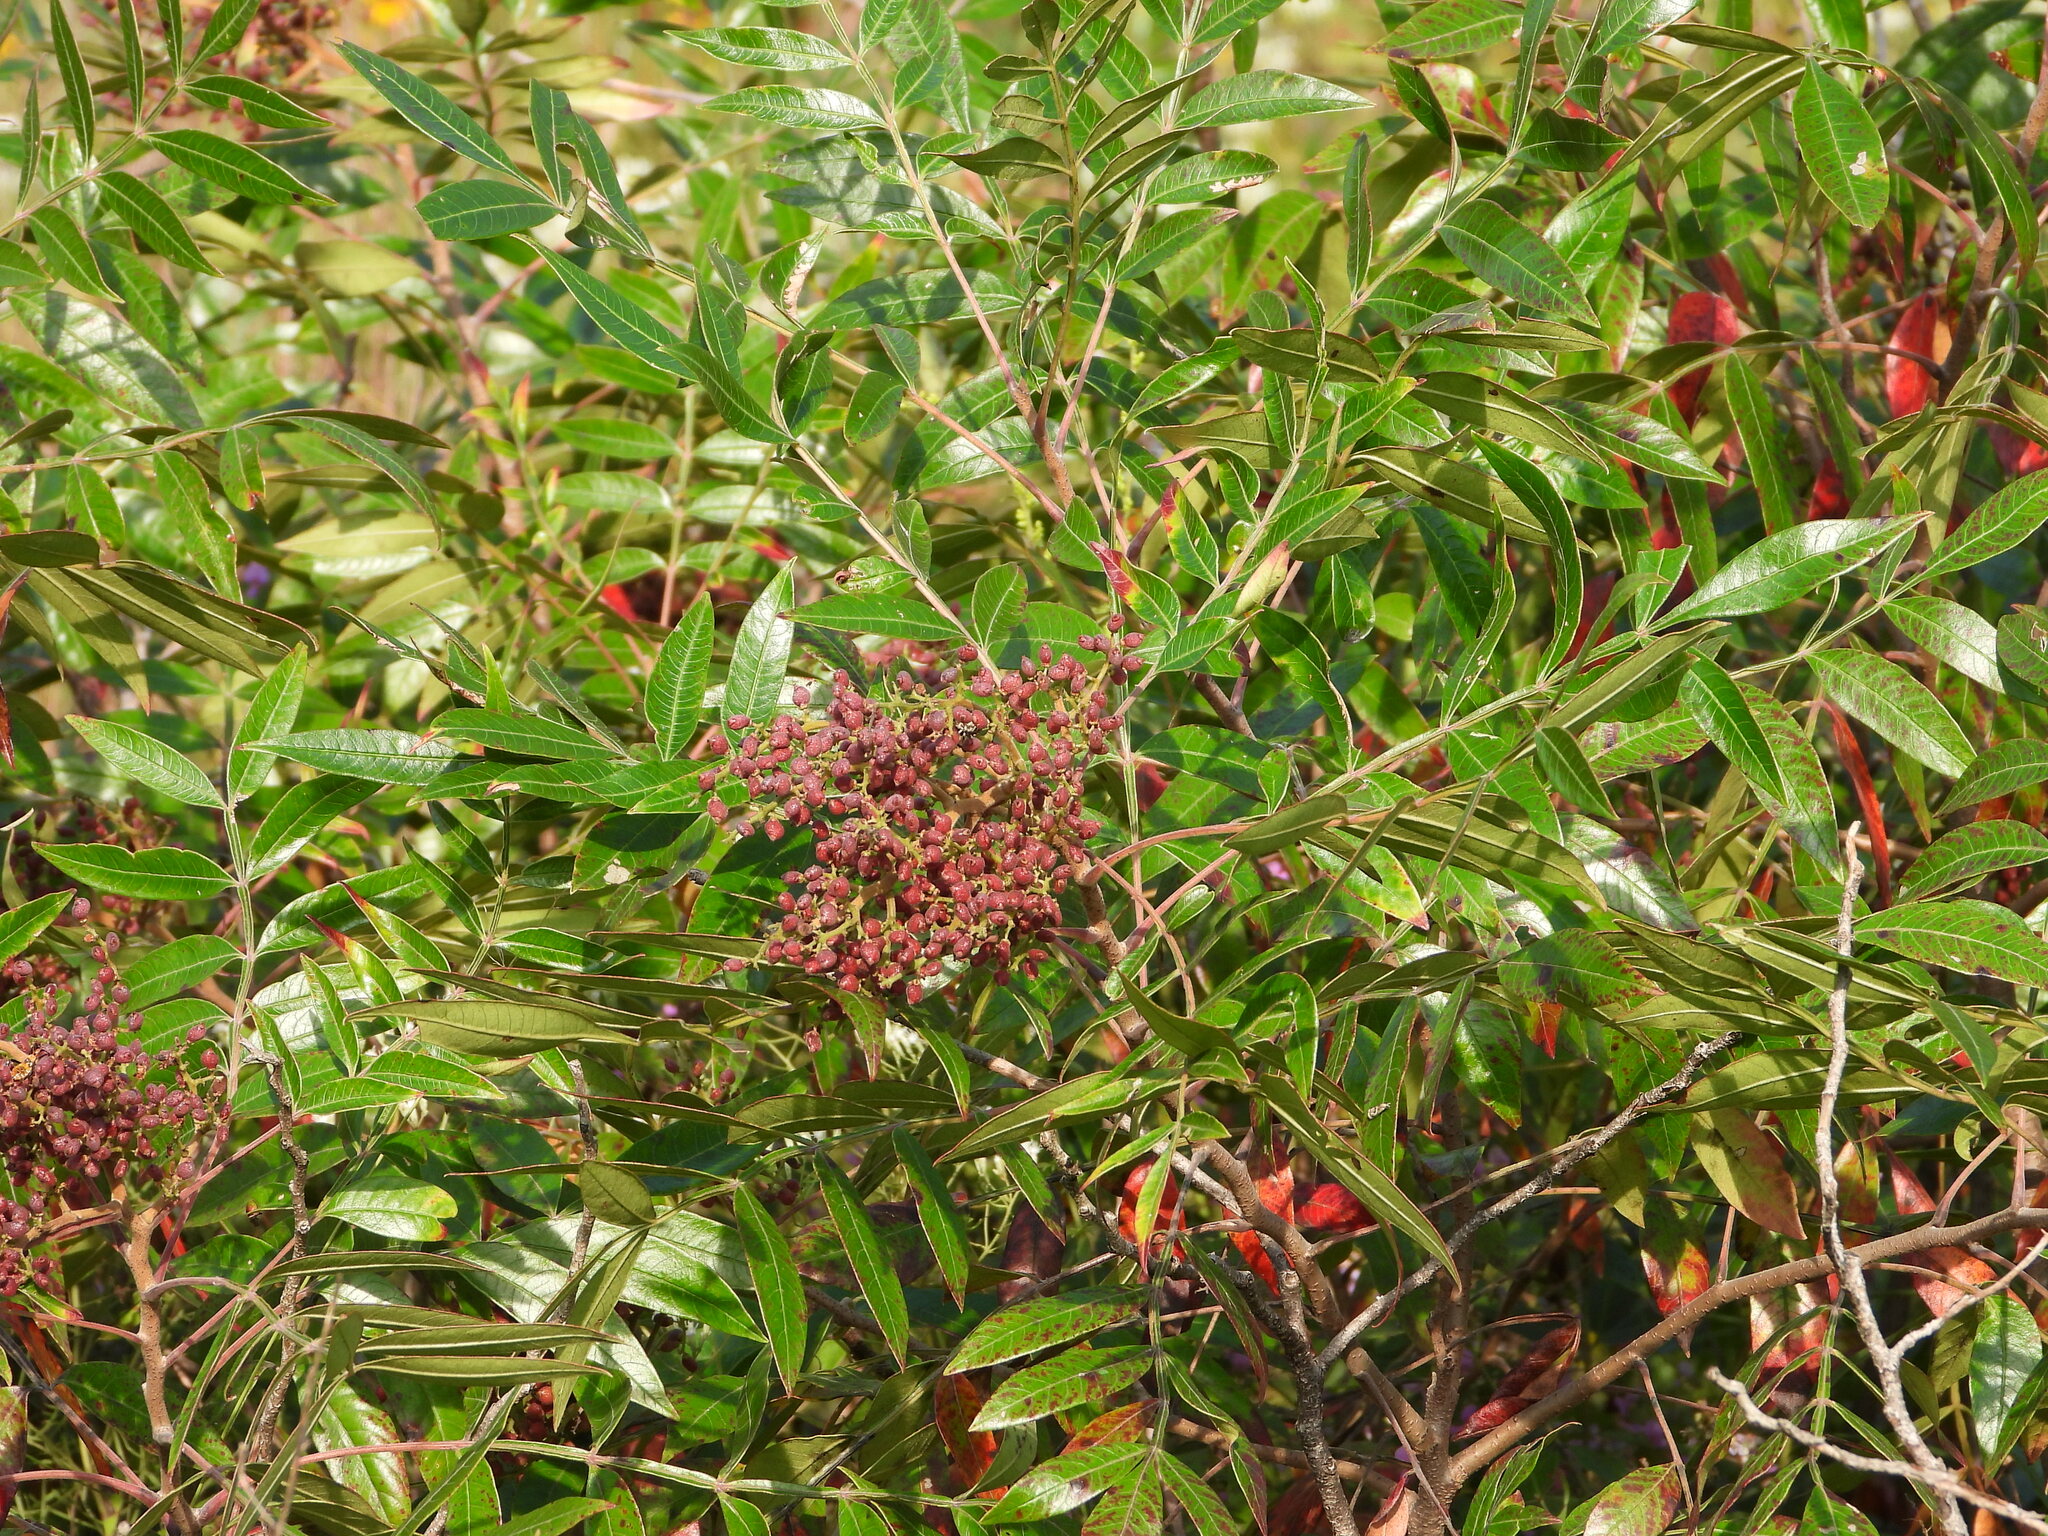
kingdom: Plantae
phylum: Tracheophyta
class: Magnoliopsida
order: Sapindales
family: Anacardiaceae
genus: Rhus
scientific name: Rhus copallina
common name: Shining sumac
